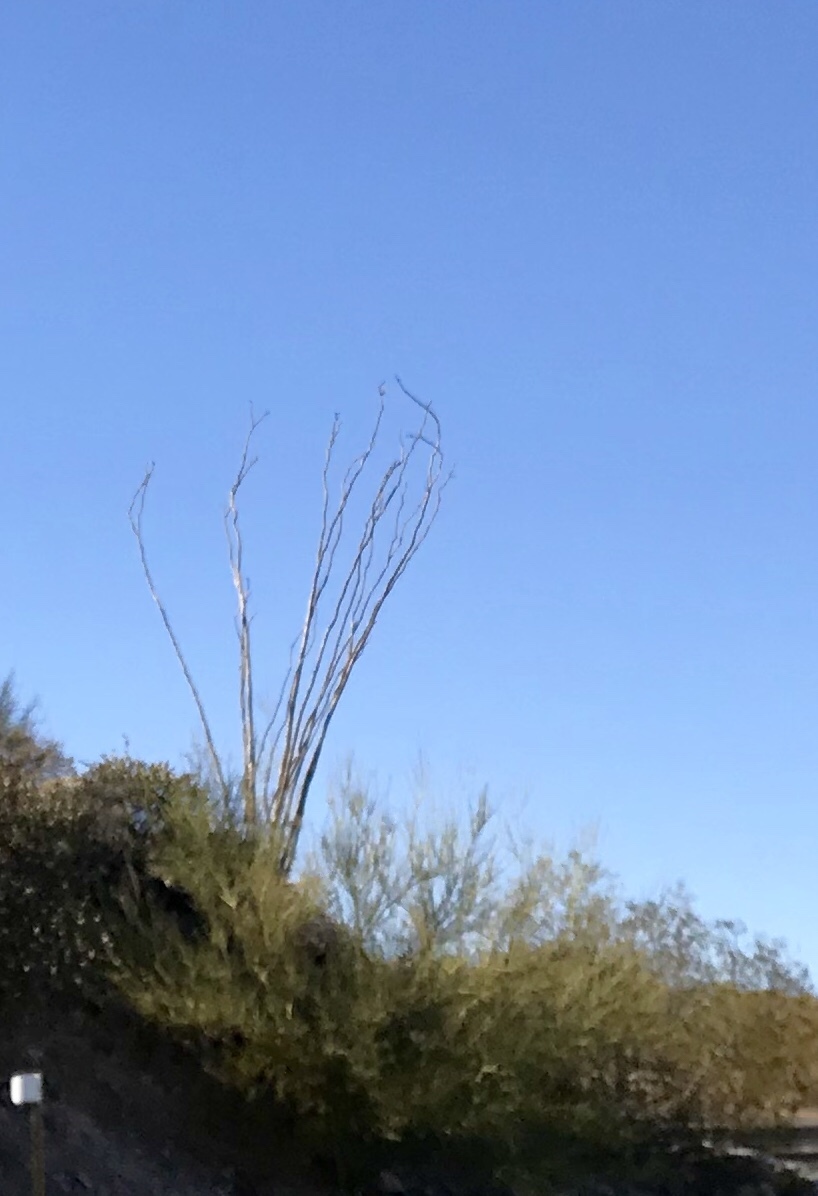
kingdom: Plantae
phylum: Tracheophyta
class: Magnoliopsida
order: Ericales
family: Fouquieriaceae
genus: Fouquieria
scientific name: Fouquieria splendens
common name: Vine-cactus
